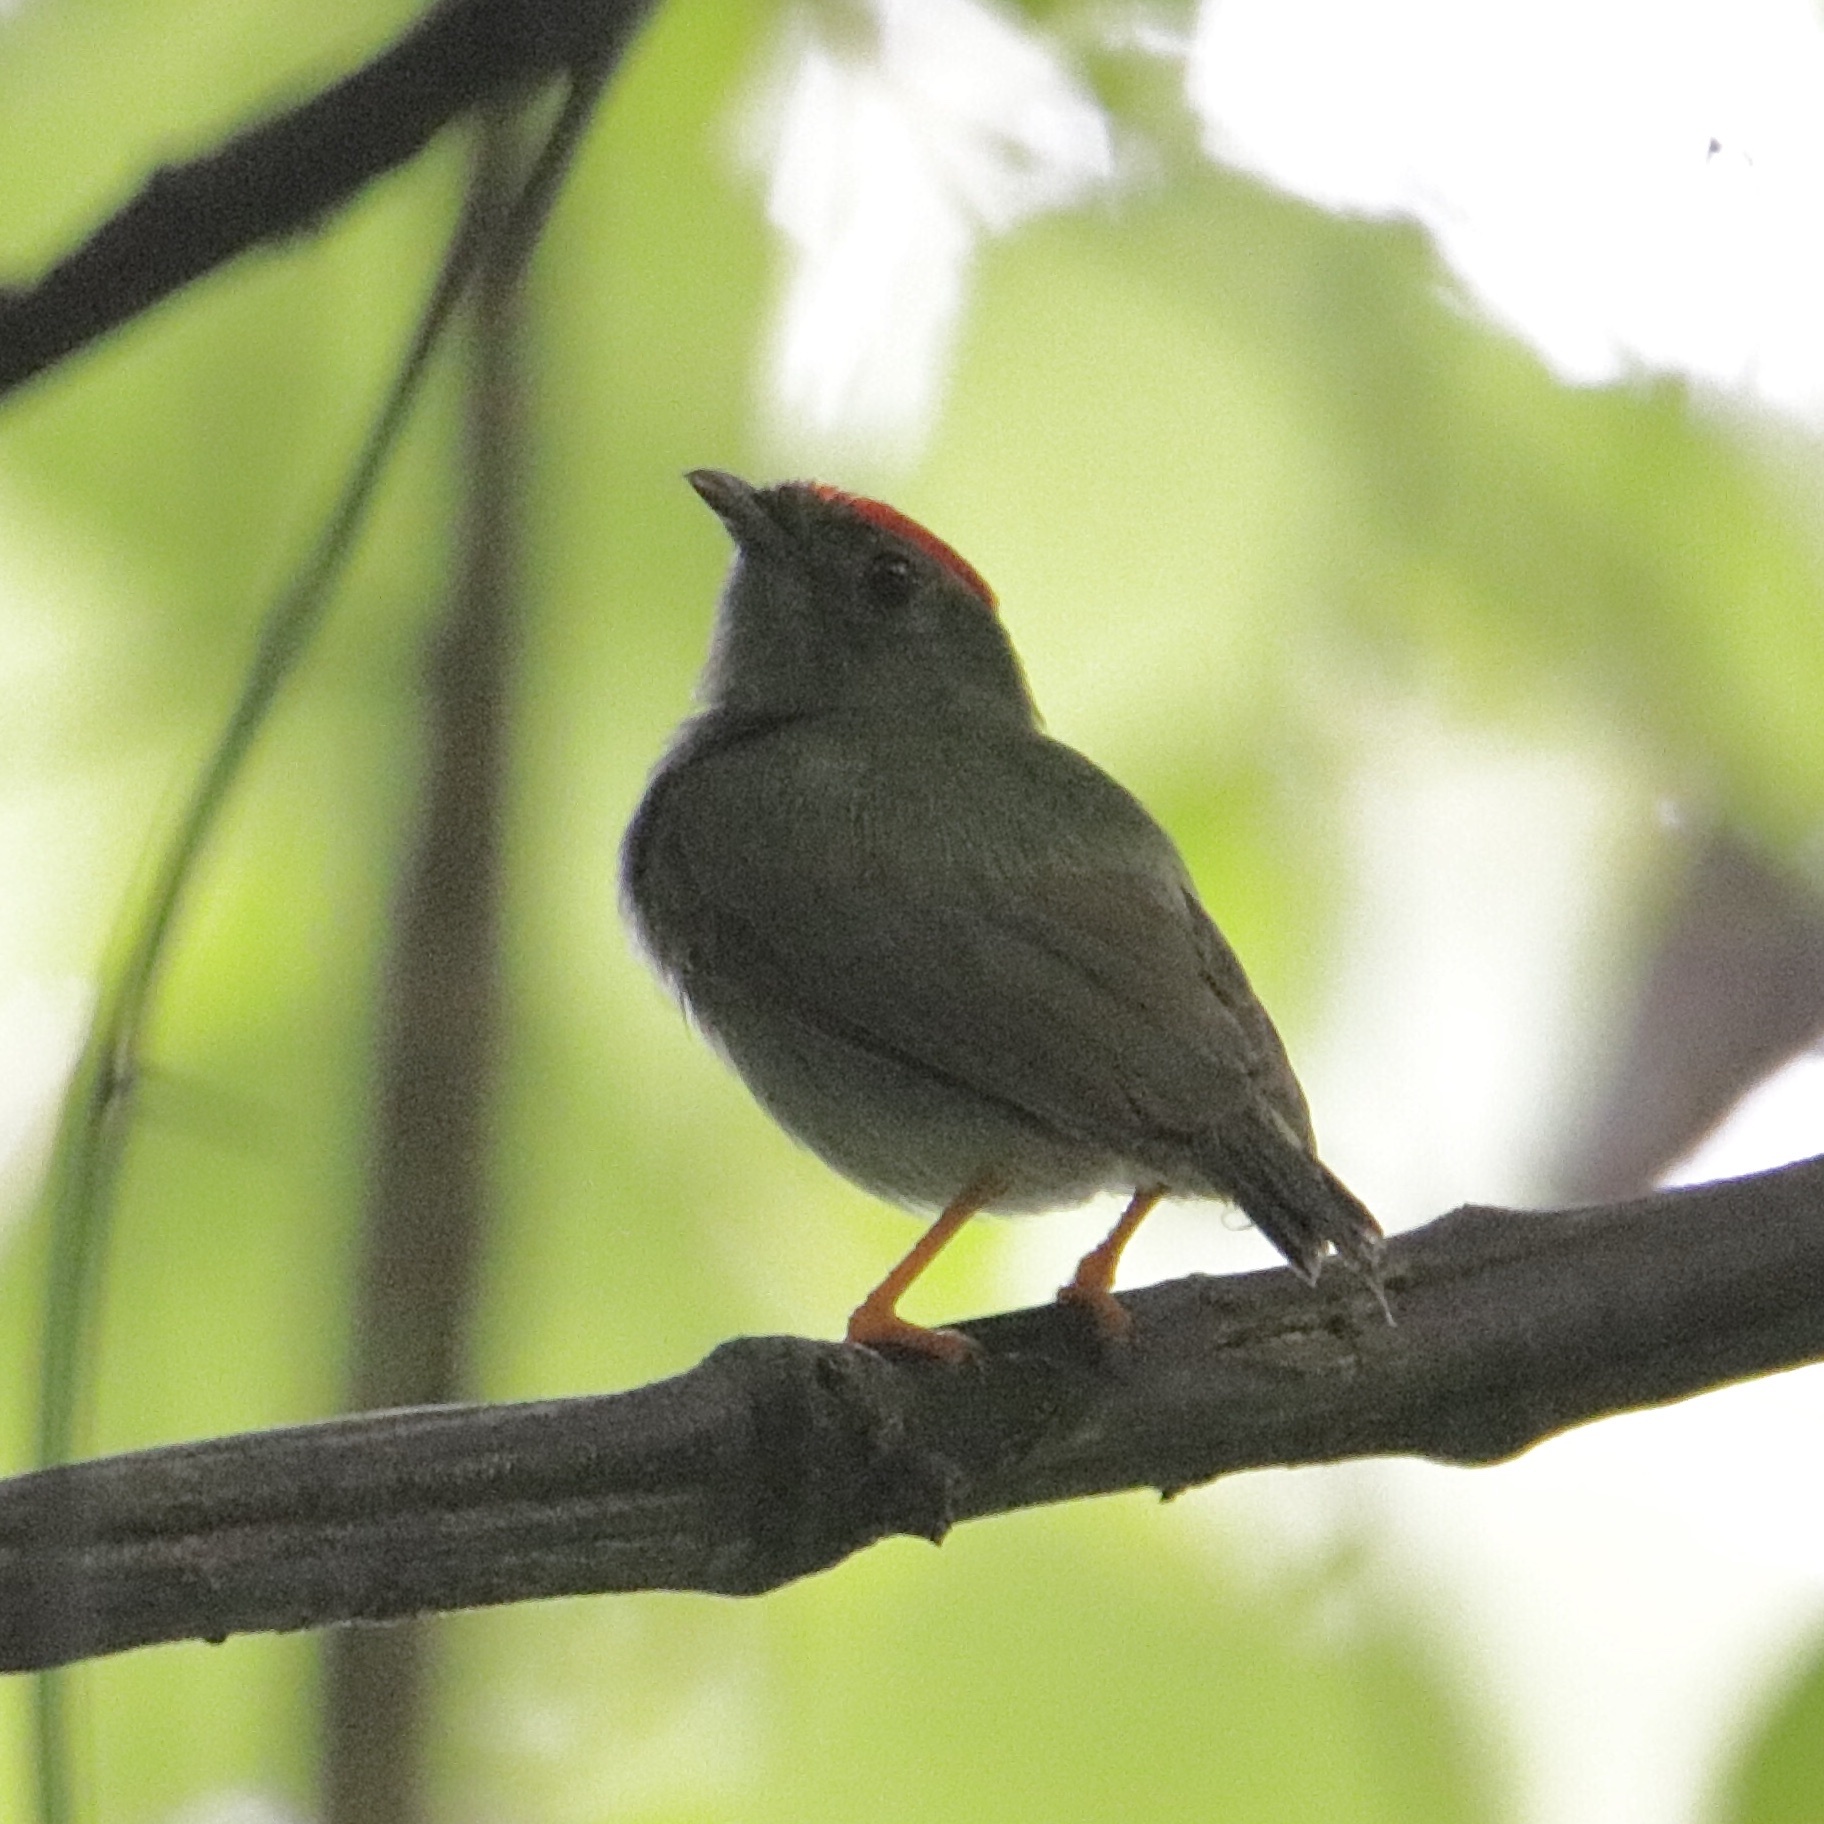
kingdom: Animalia
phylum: Chordata
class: Aves
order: Passeriformes
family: Pipridae
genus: Chiroxiphia
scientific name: Chiroxiphia lanceolata
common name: Lance-tailed manakin
